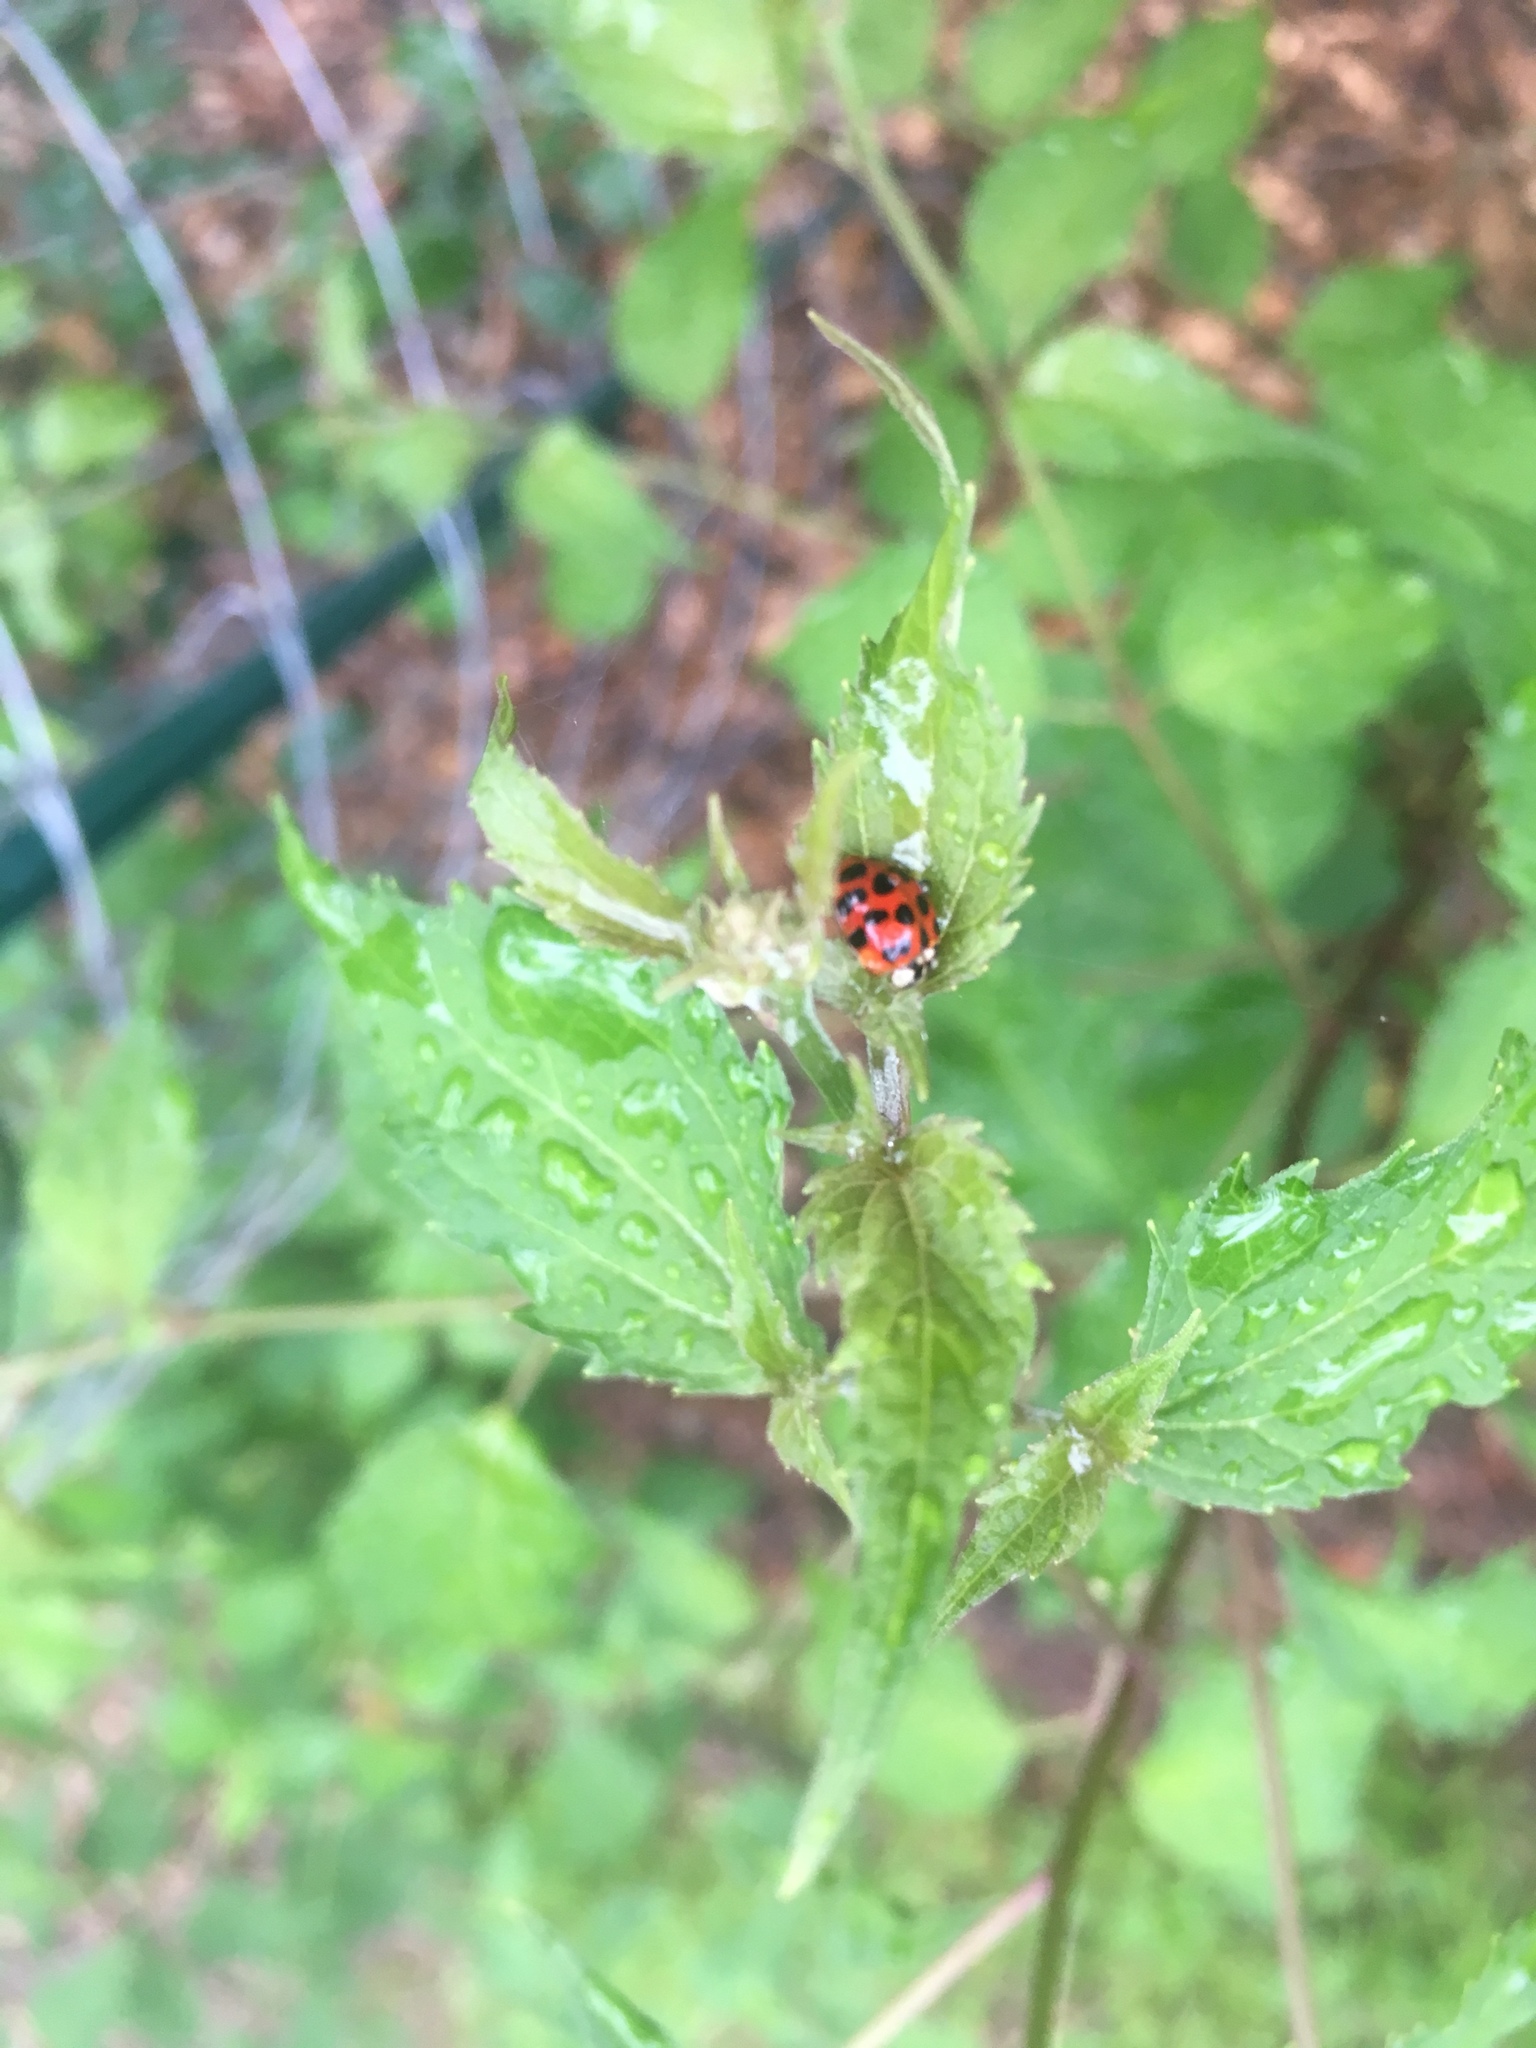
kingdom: Animalia
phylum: Arthropoda
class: Insecta
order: Coleoptera
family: Coccinellidae
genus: Harmonia
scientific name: Harmonia axyridis
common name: Harlequin ladybird
